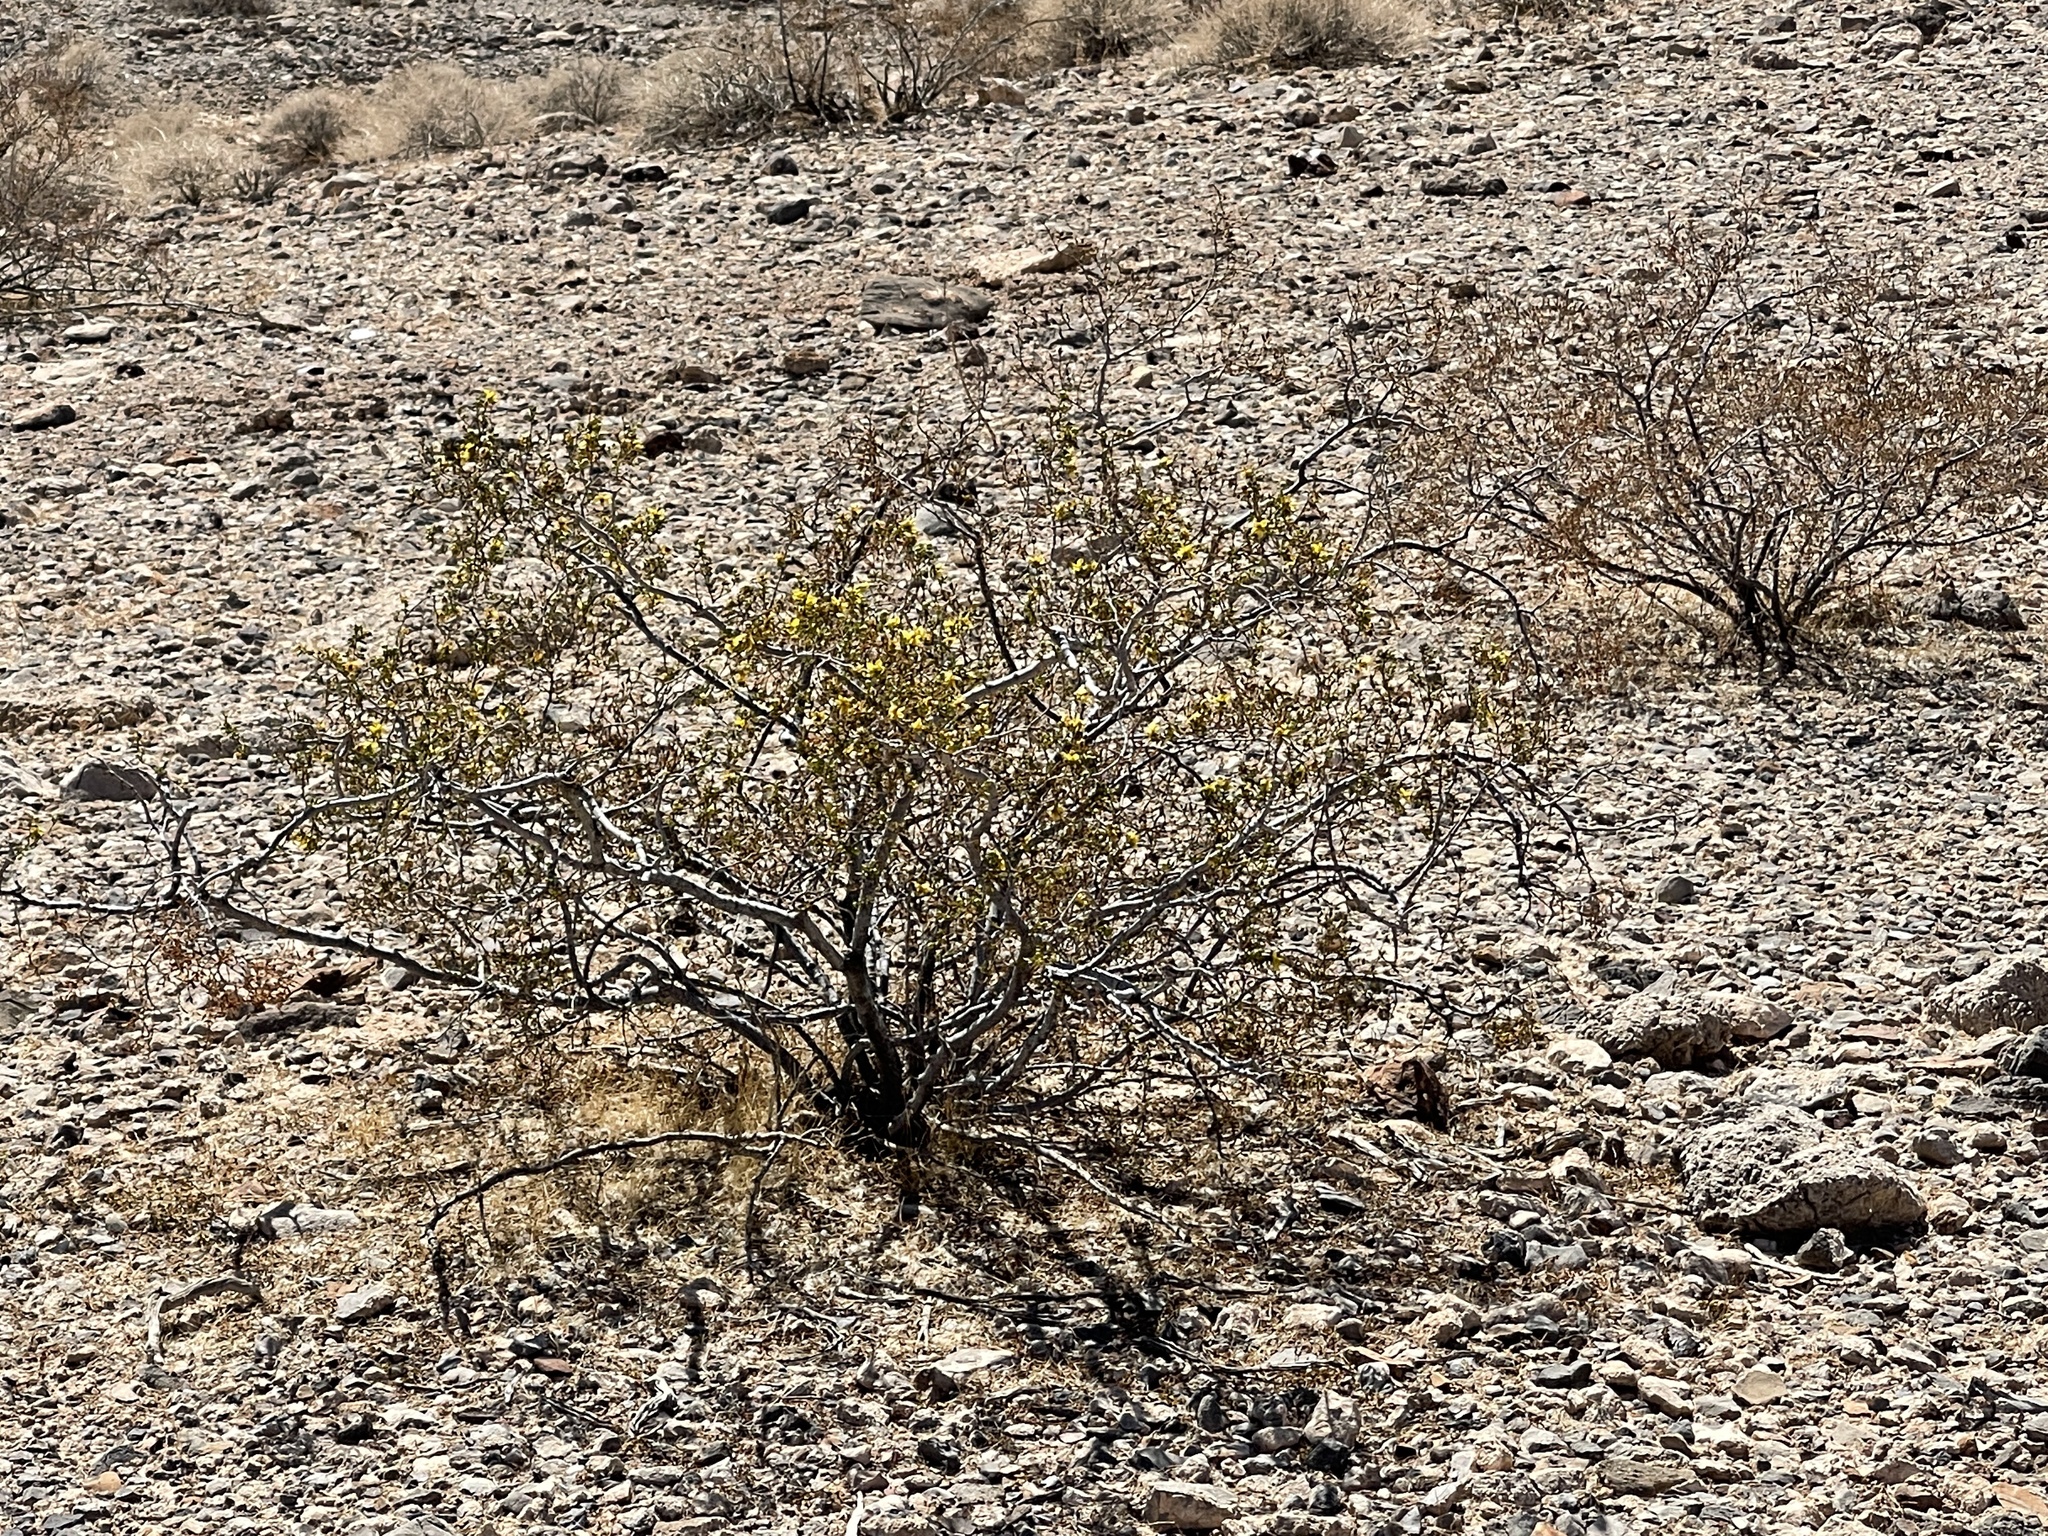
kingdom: Plantae
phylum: Tracheophyta
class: Magnoliopsida
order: Zygophyllales
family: Zygophyllaceae
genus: Larrea
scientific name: Larrea tridentata
